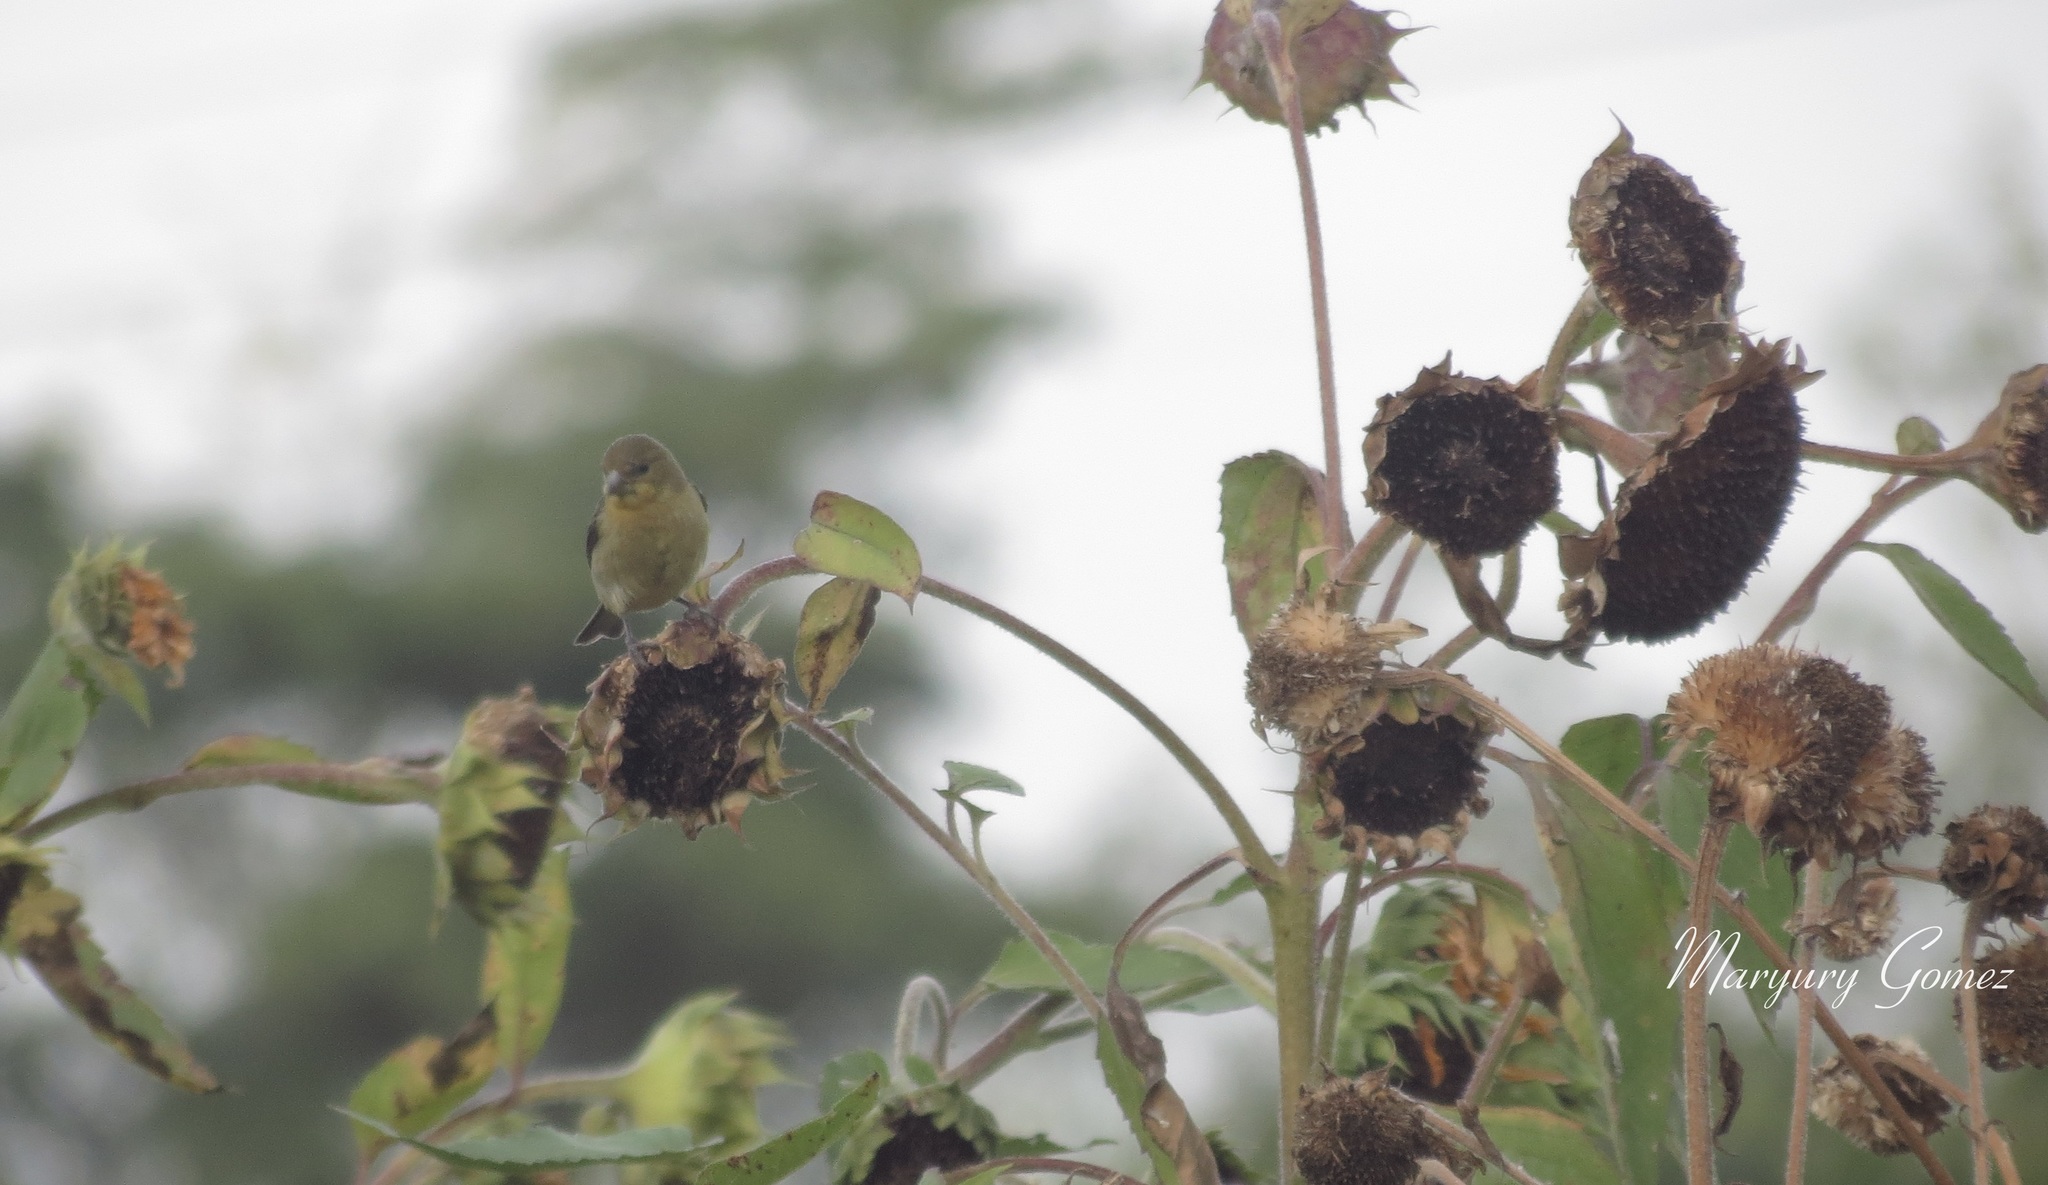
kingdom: Animalia
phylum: Chordata
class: Aves
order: Passeriformes
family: Fringillidae
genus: Spinus
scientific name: Spinus psaltria
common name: Lesser goldfinch
